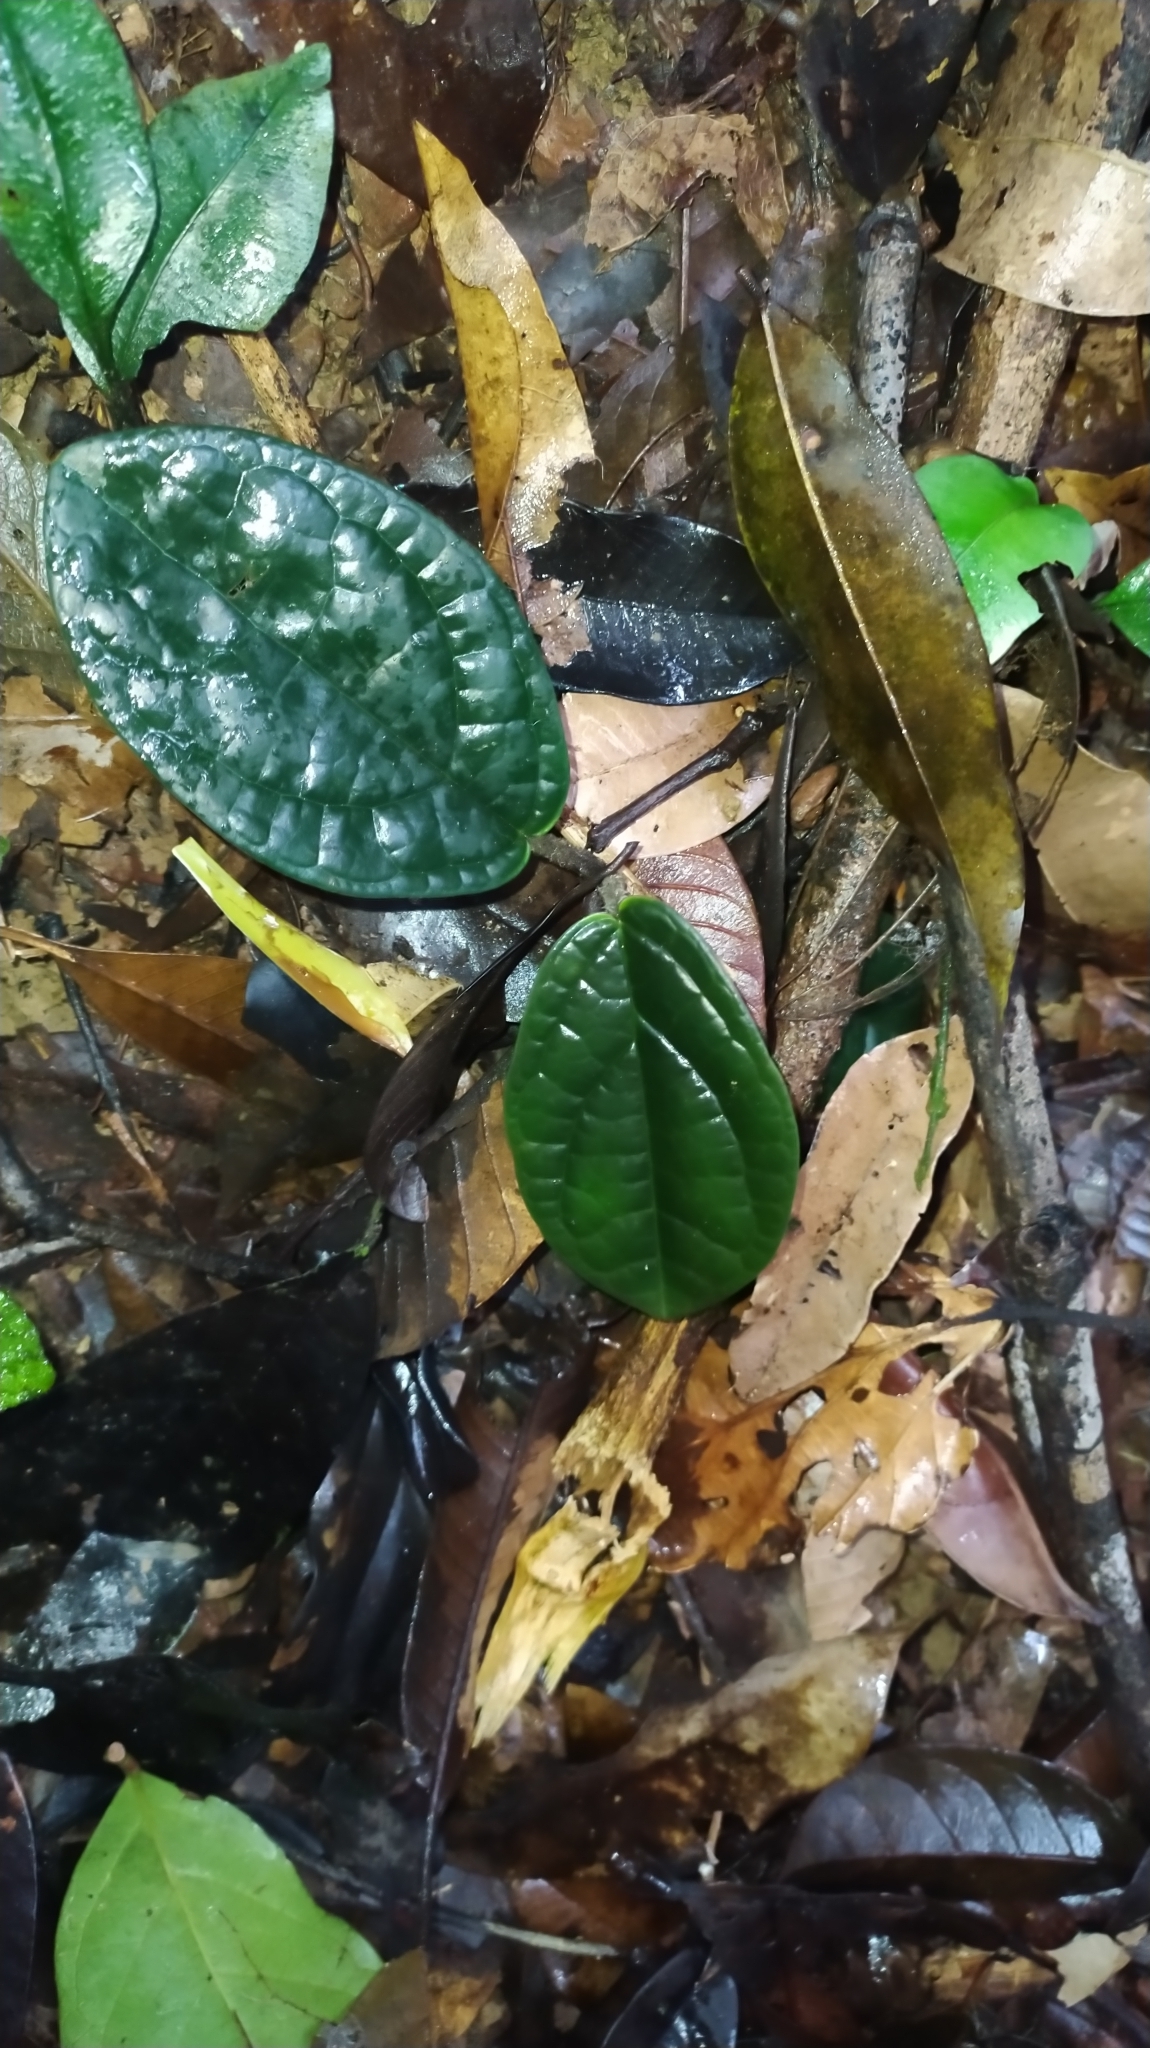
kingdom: Plantae
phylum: Tracheophyta
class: Magnoliopsida
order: Piperales
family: Piperaceae
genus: Piper
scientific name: Piper humistratum
